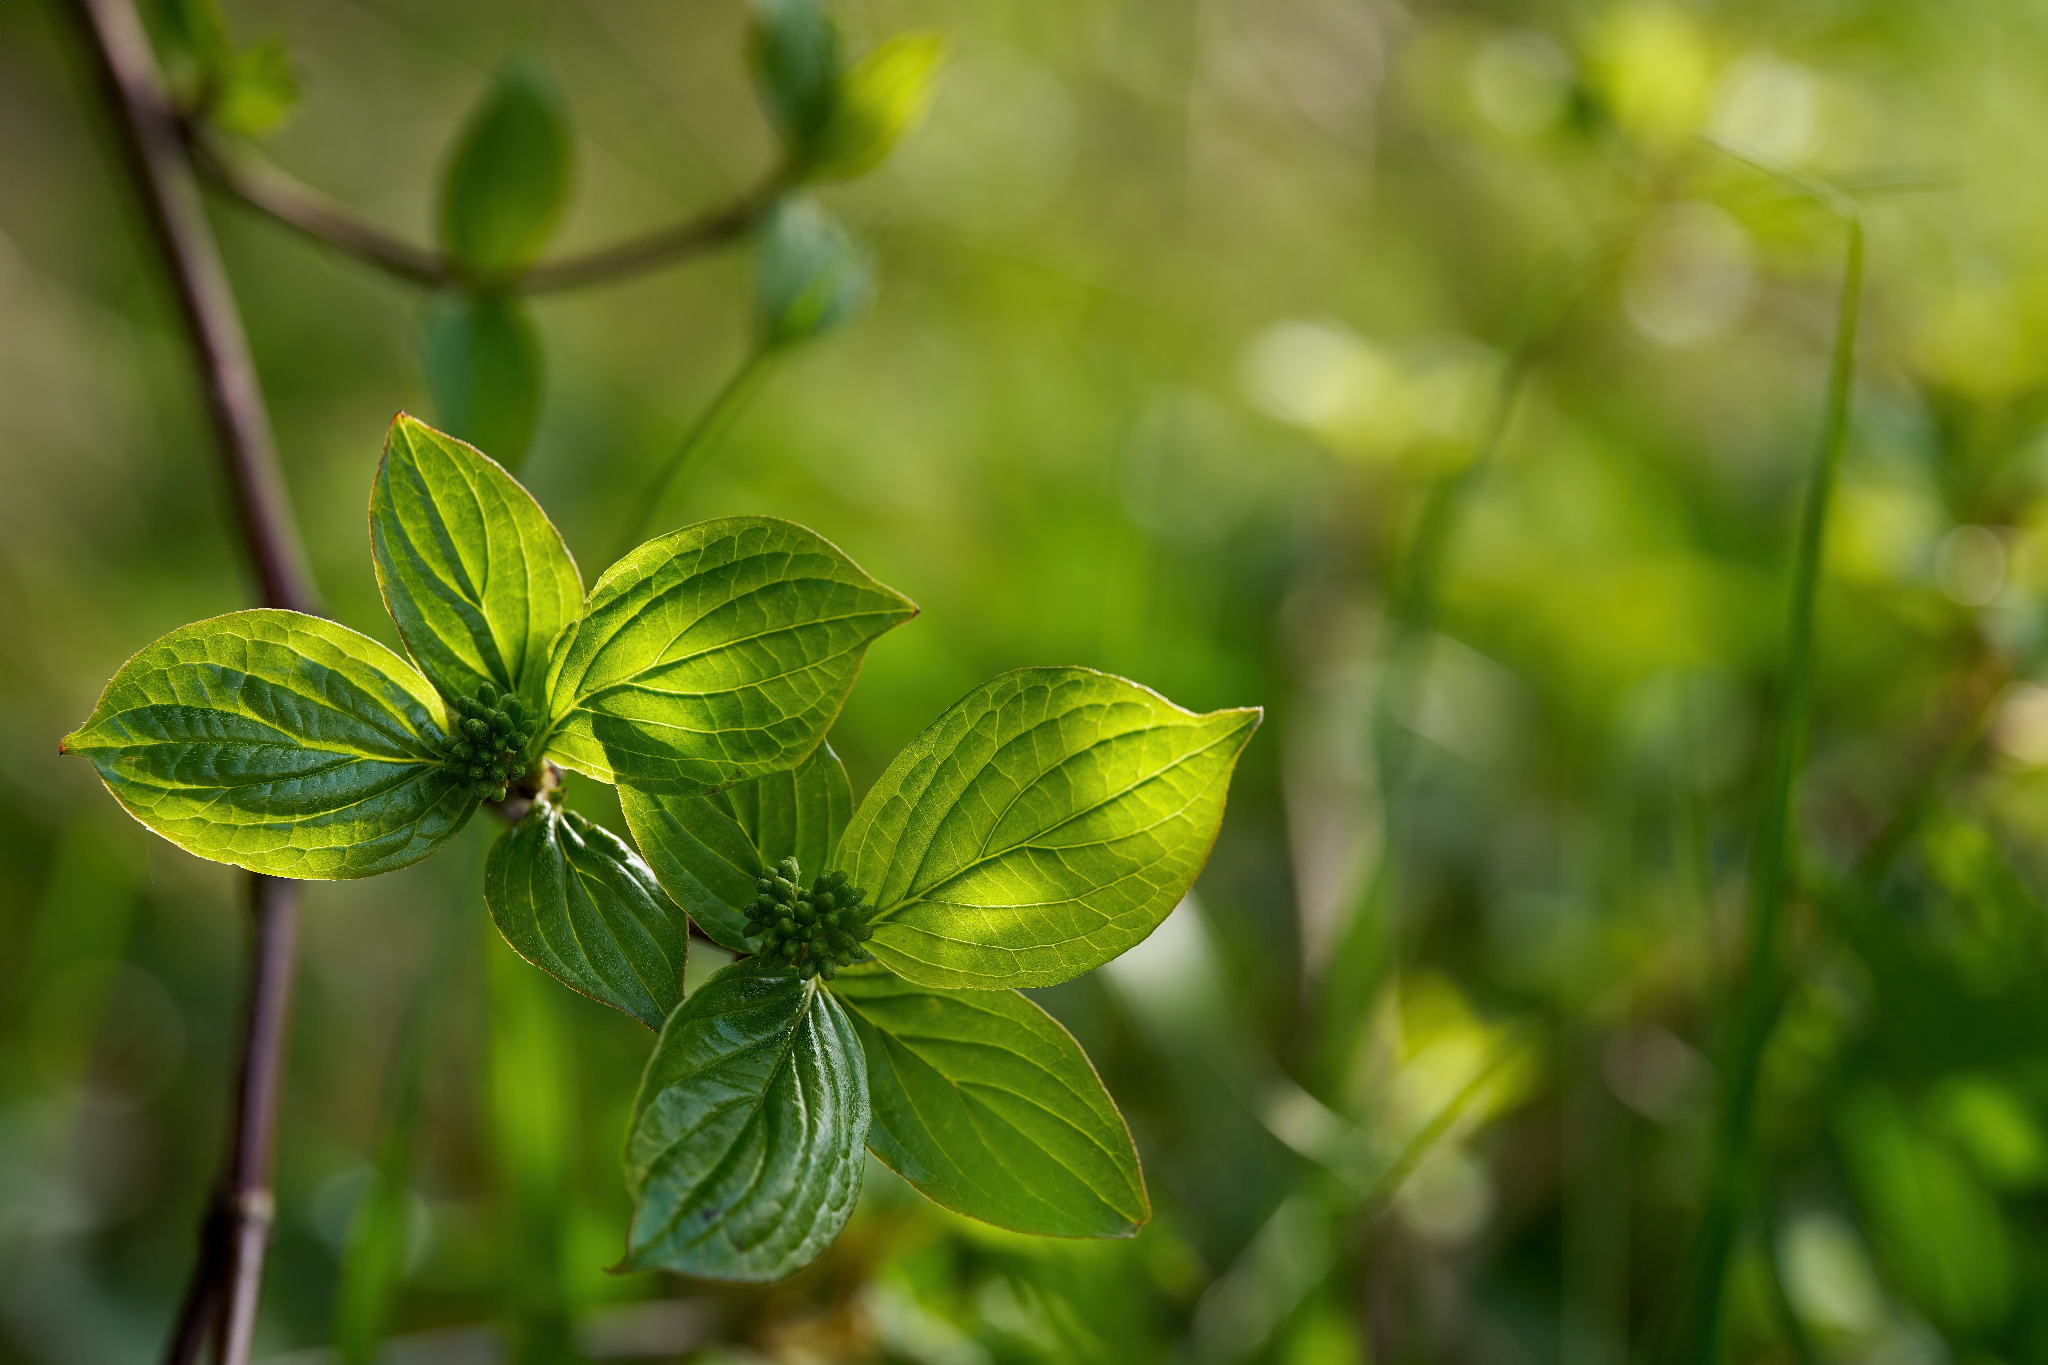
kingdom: Plantae
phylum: Tracheophyta
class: Magnoliopsida
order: Cornales
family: Cornaceae
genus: Cornus
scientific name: Cornus sanguinea
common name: Dogwood
